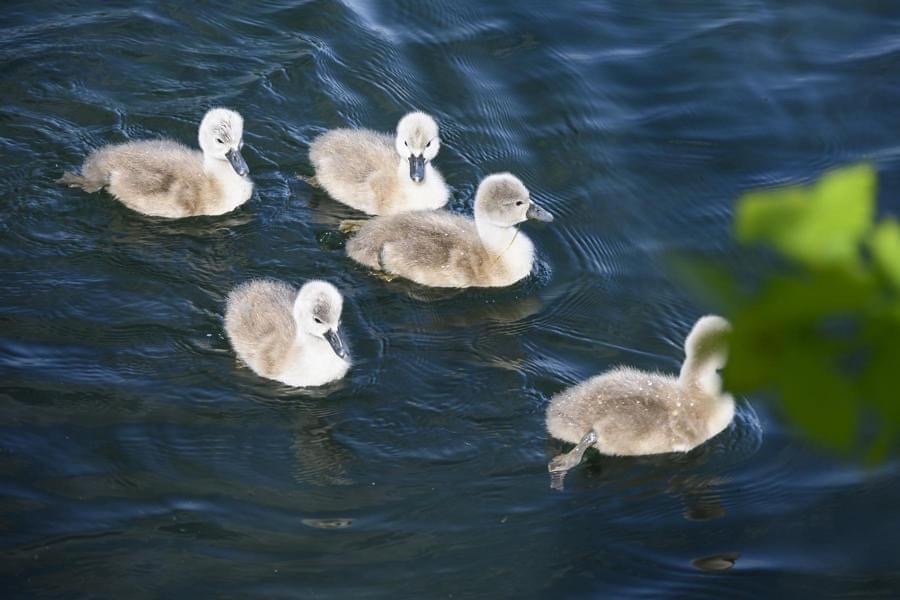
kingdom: Animalia
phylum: Chordata
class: Aves
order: Anseriformes
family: Anatidae
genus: Cygnus
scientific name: Cygnus olor
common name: Mute swan
